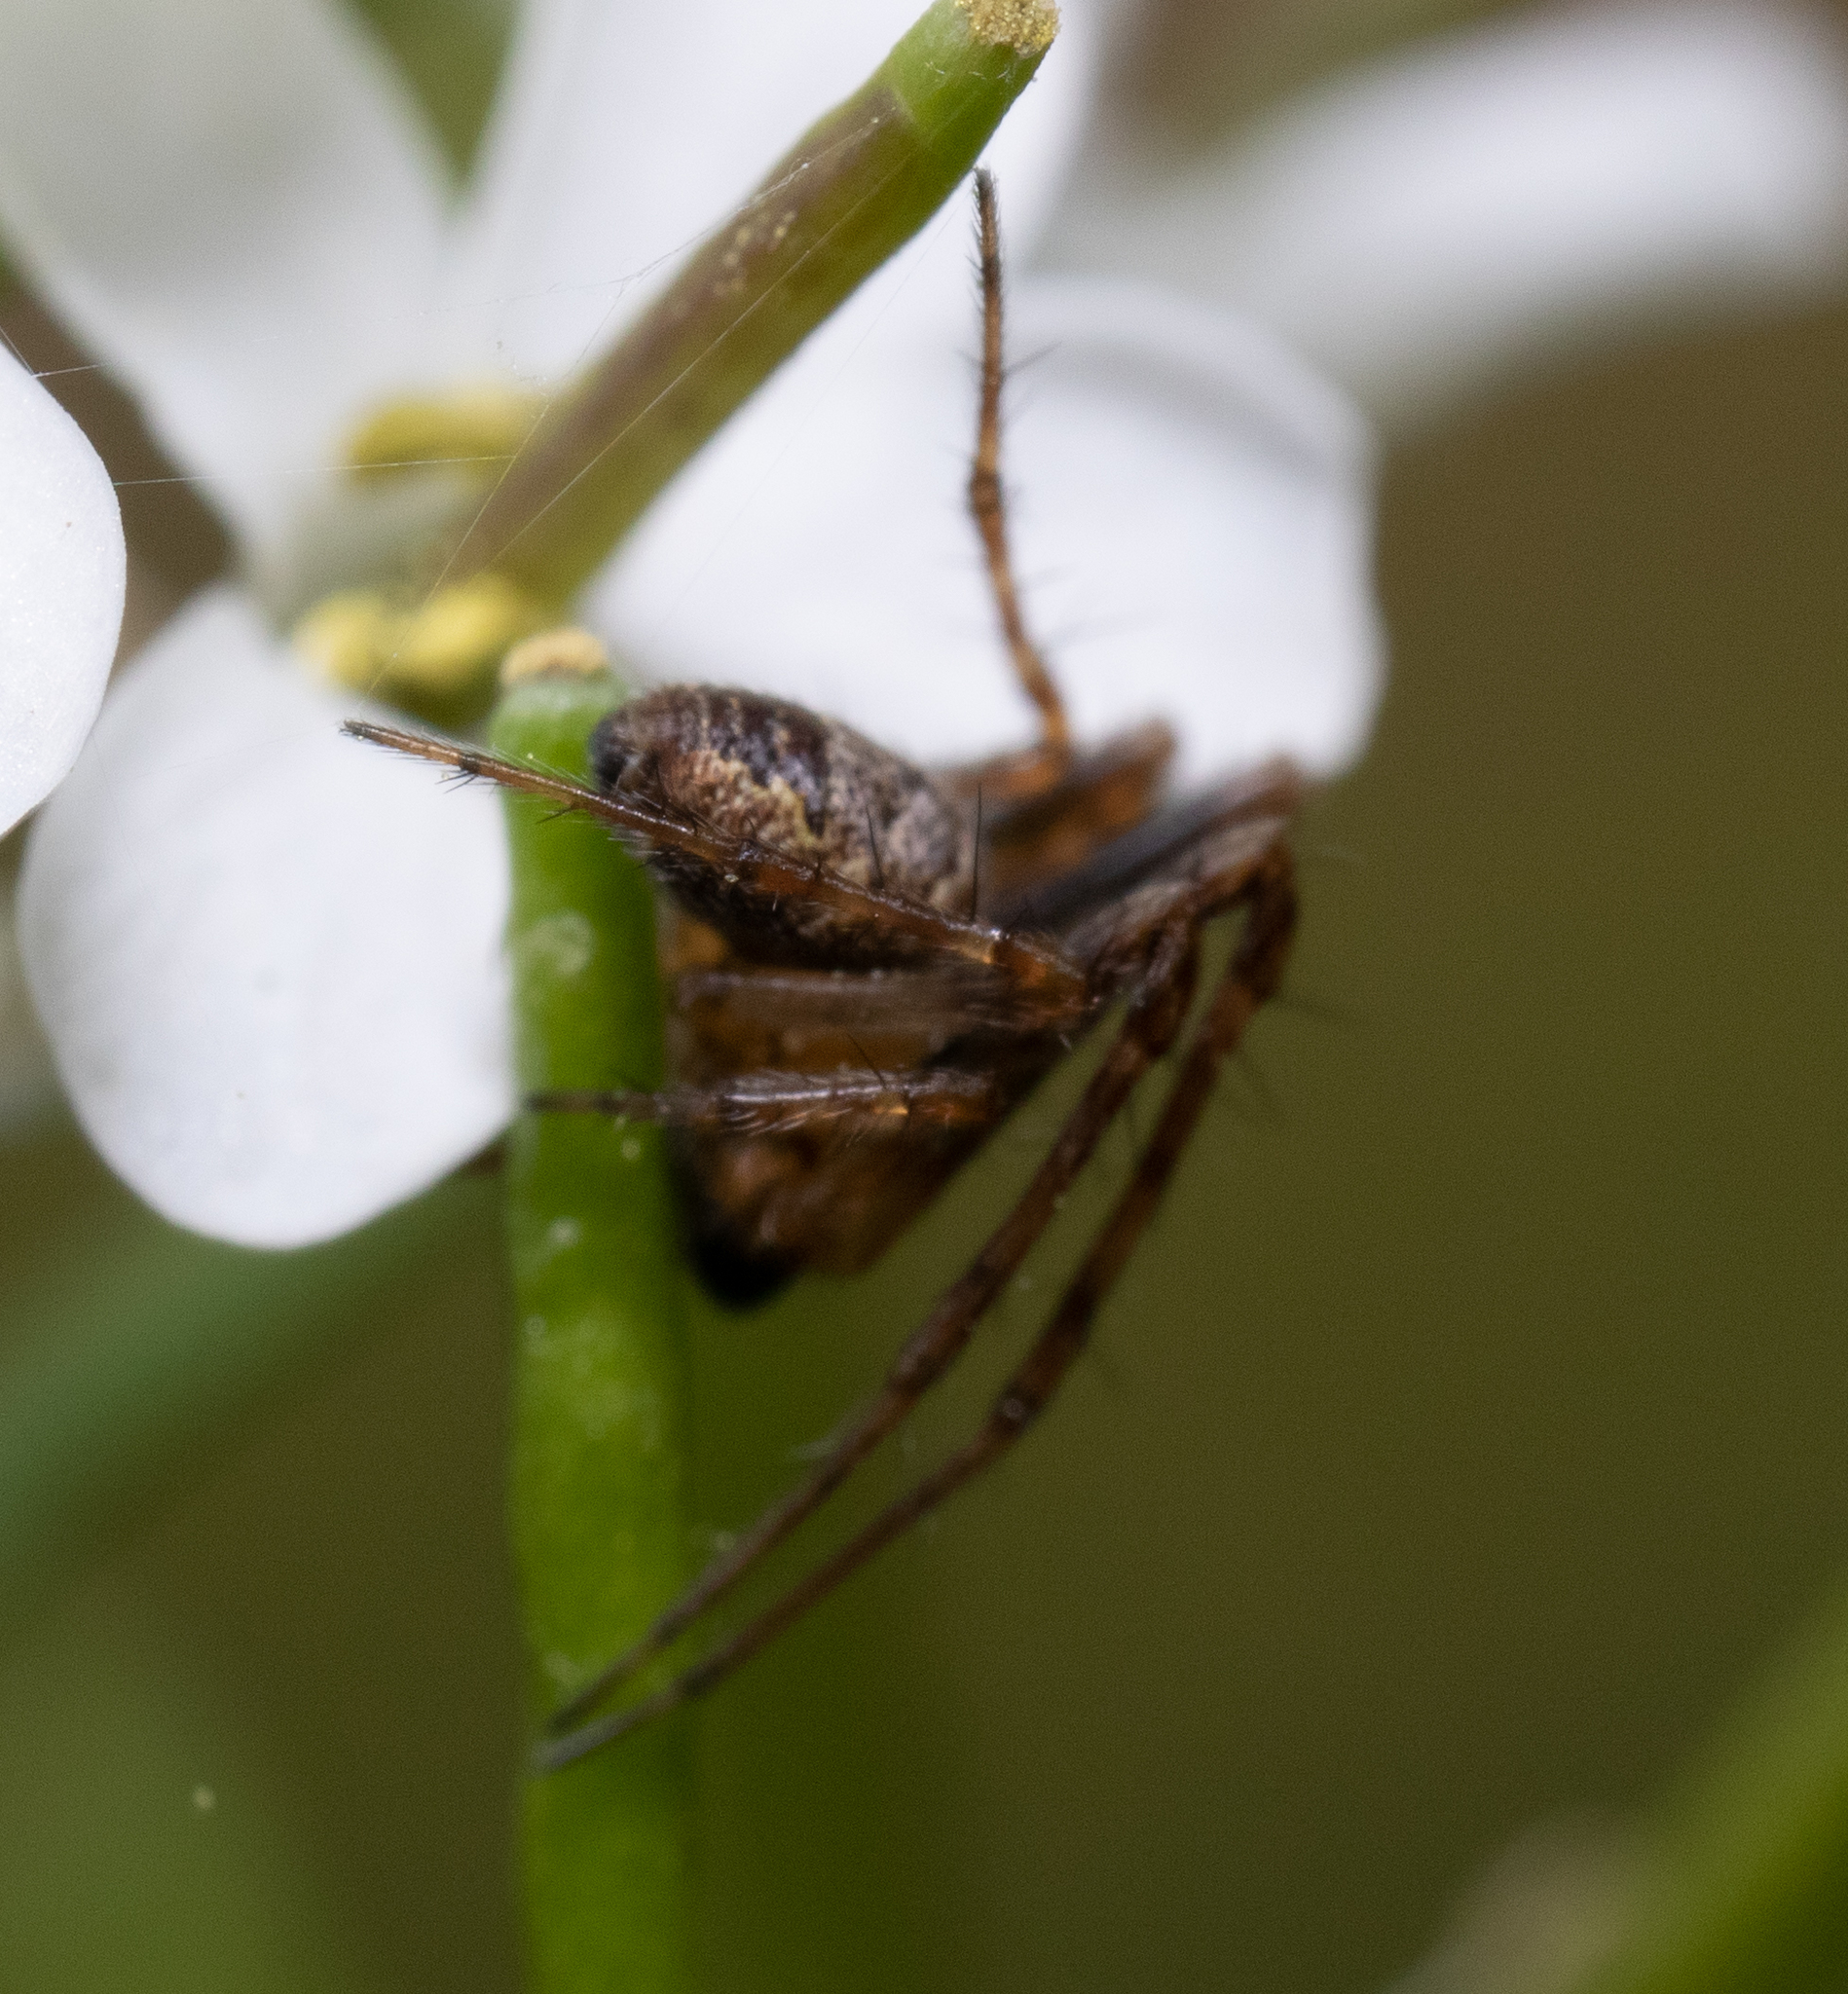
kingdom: Animalia
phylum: Arthropoda
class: Arachnida
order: Araneae
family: Araneidae
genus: Zilla
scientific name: Zilla diodia
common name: Zilla diodia
